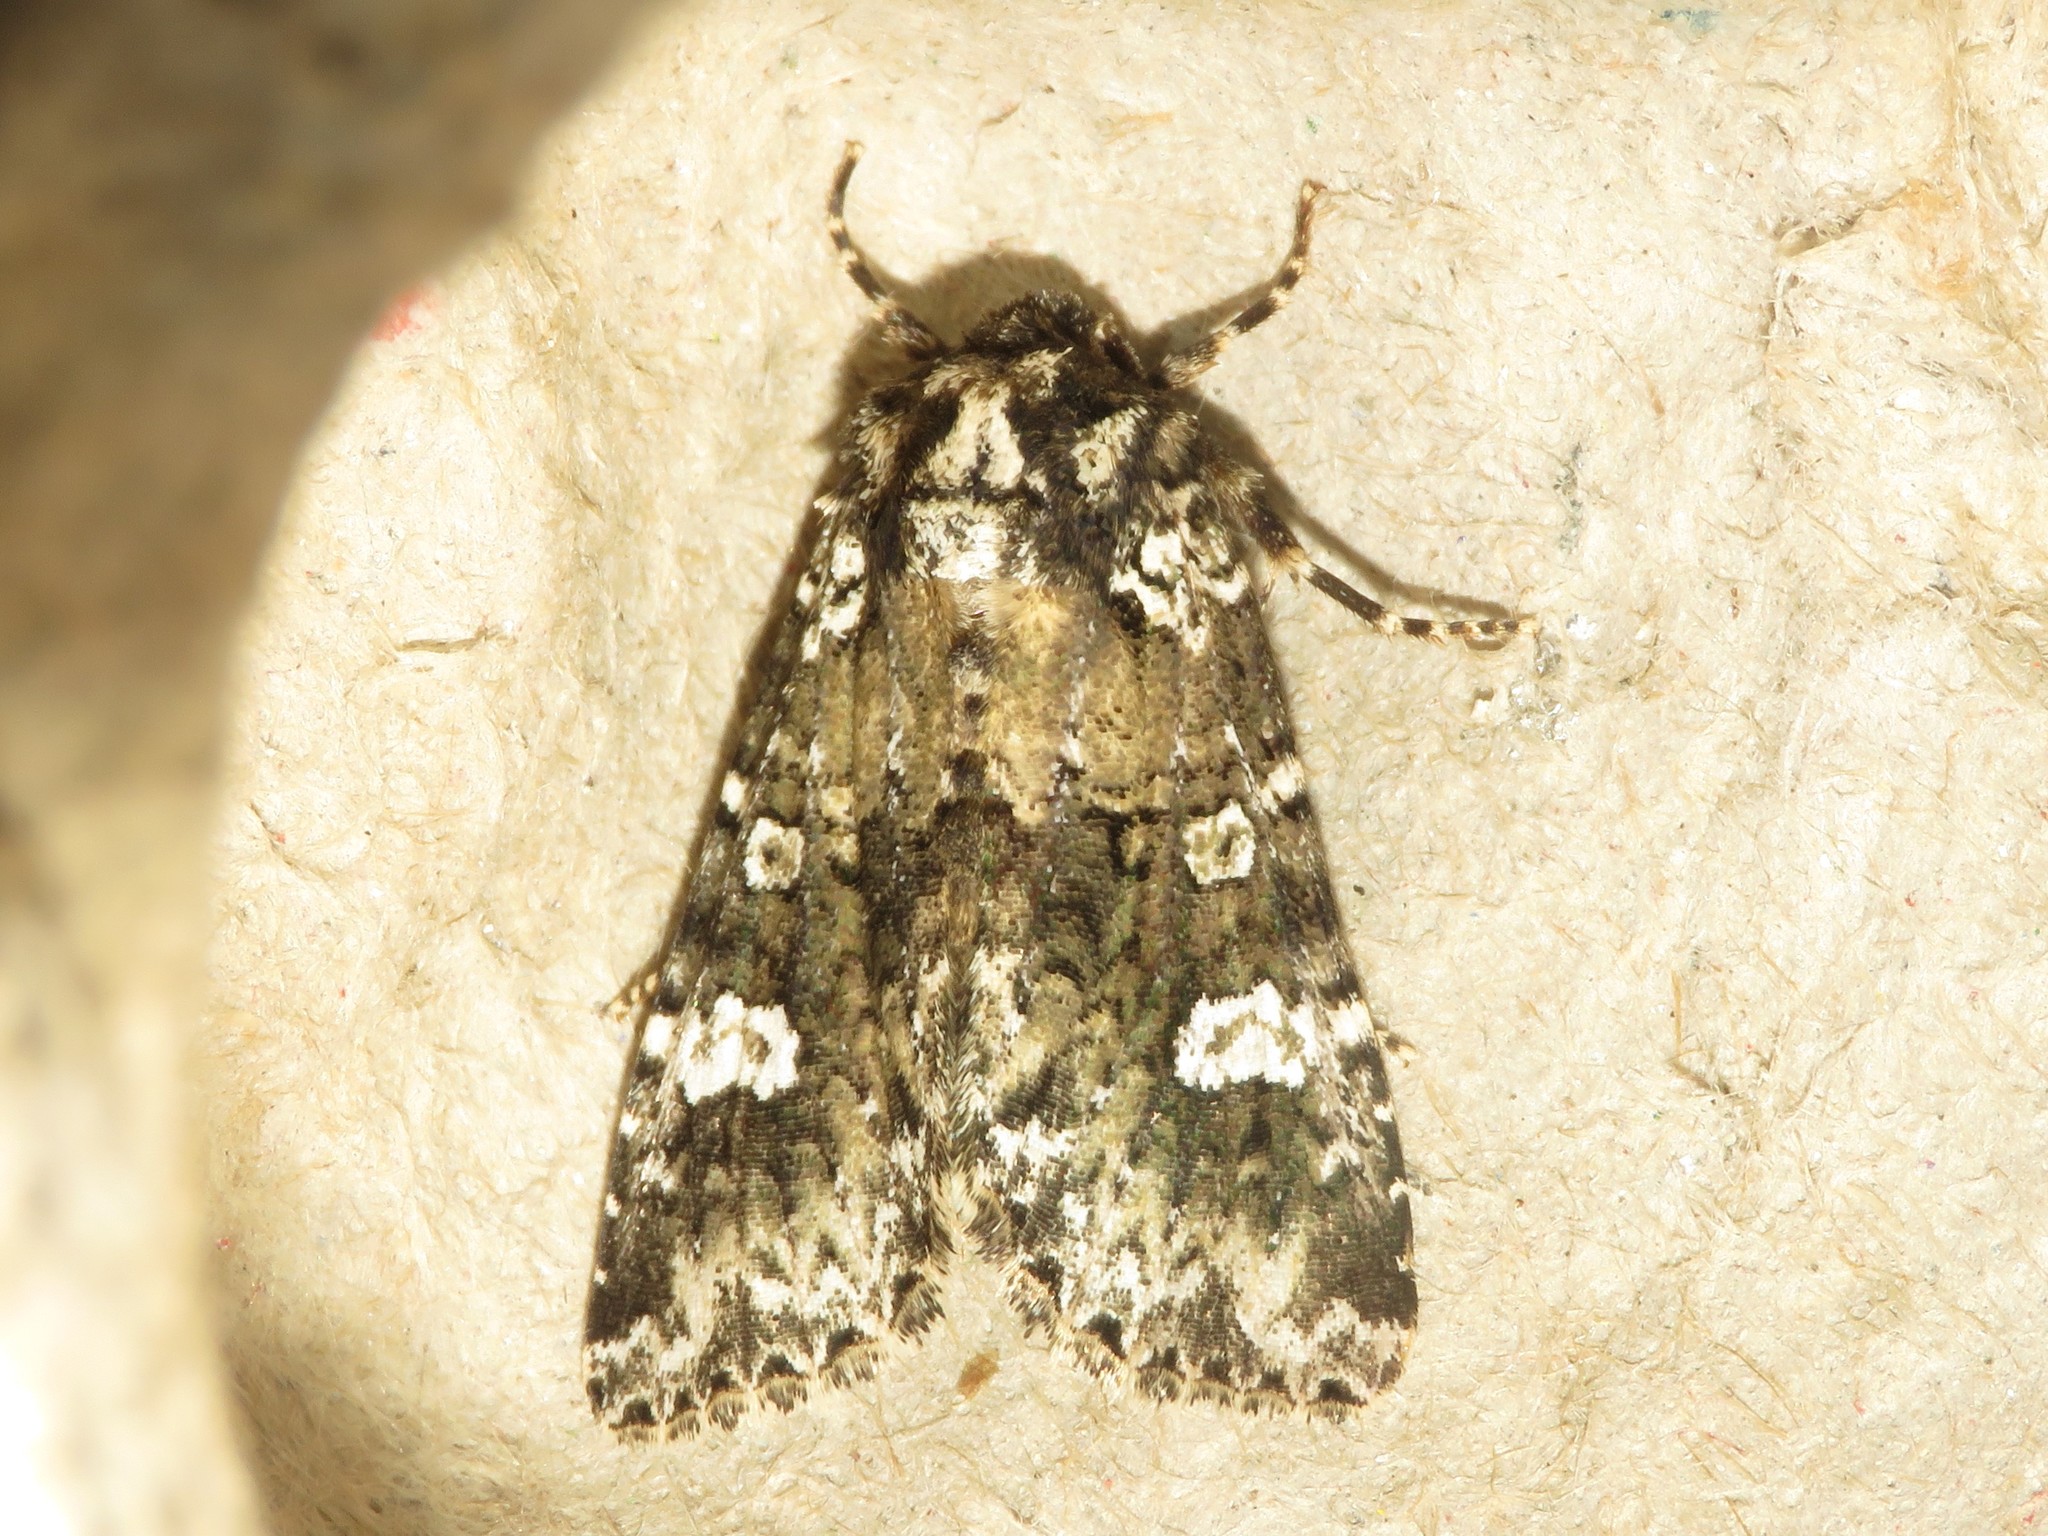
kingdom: Animalia
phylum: Arthropoda
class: Insecta
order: Lepidoptera
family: Noctuidae
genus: Melanchra
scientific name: Melanchra adjuncta
